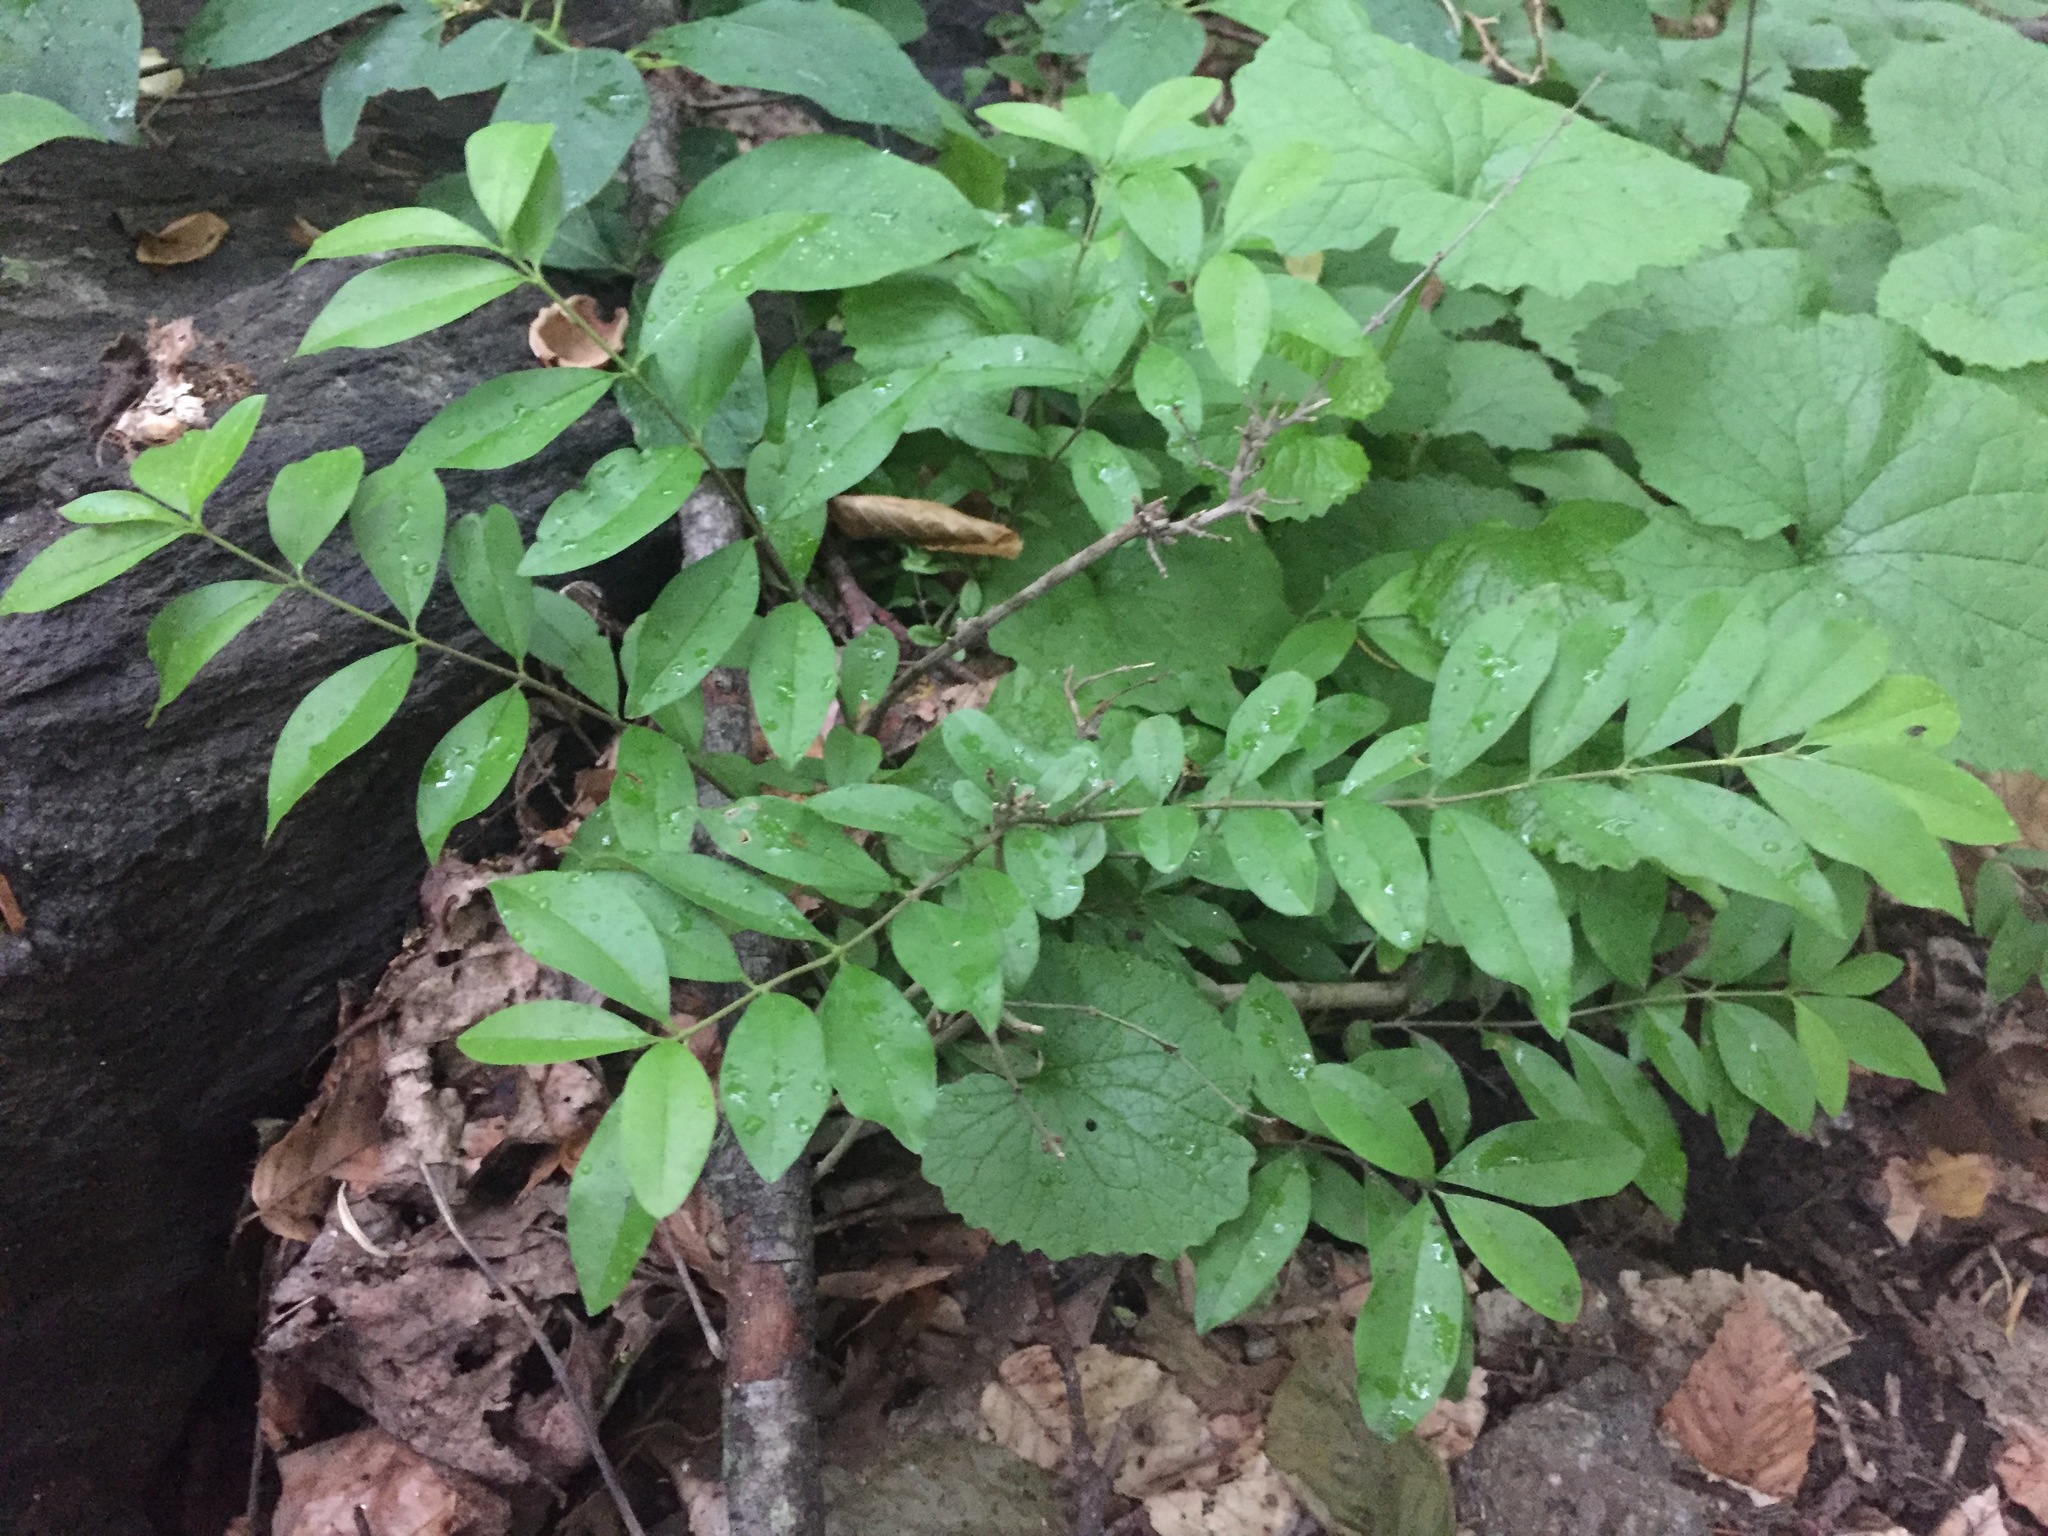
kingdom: Plantae
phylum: Tracheophyta
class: Magnoliopsida
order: Lamiales
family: Oleaceae
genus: Ligustrum
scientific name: Ligustrum obtusifolium
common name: Border privet
